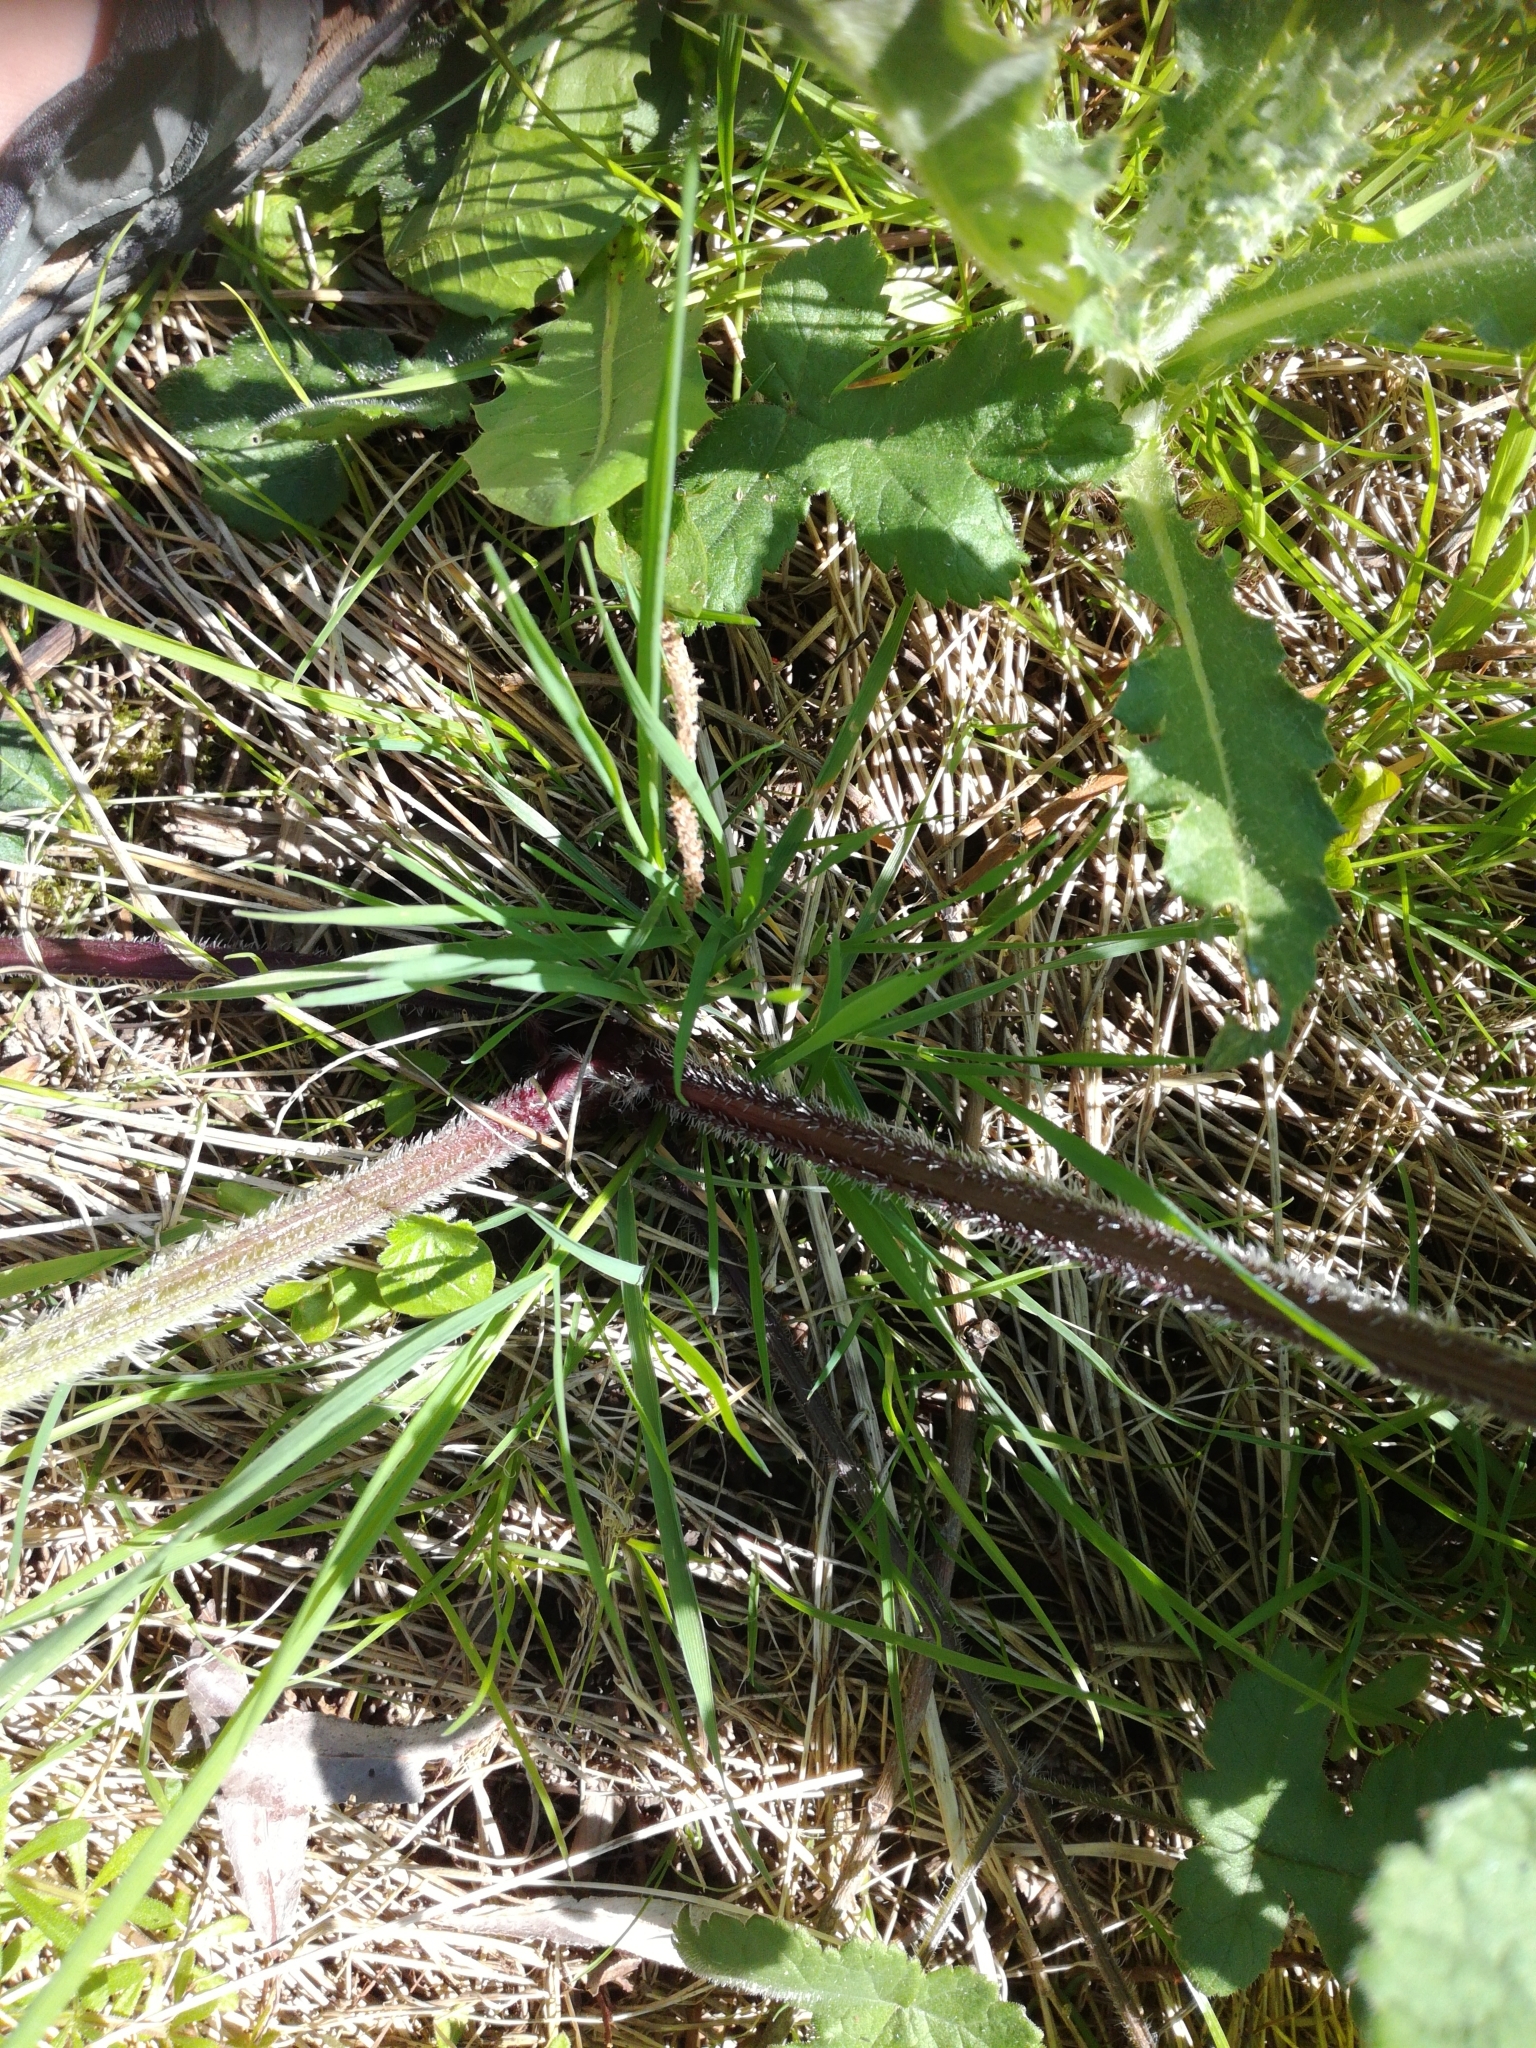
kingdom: Plantae
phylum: Tracheophyta
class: Magnoliopsida
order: Apiales
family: Apiaceae
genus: Heracleum
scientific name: Heracleum sphondylium
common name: Hogweed
